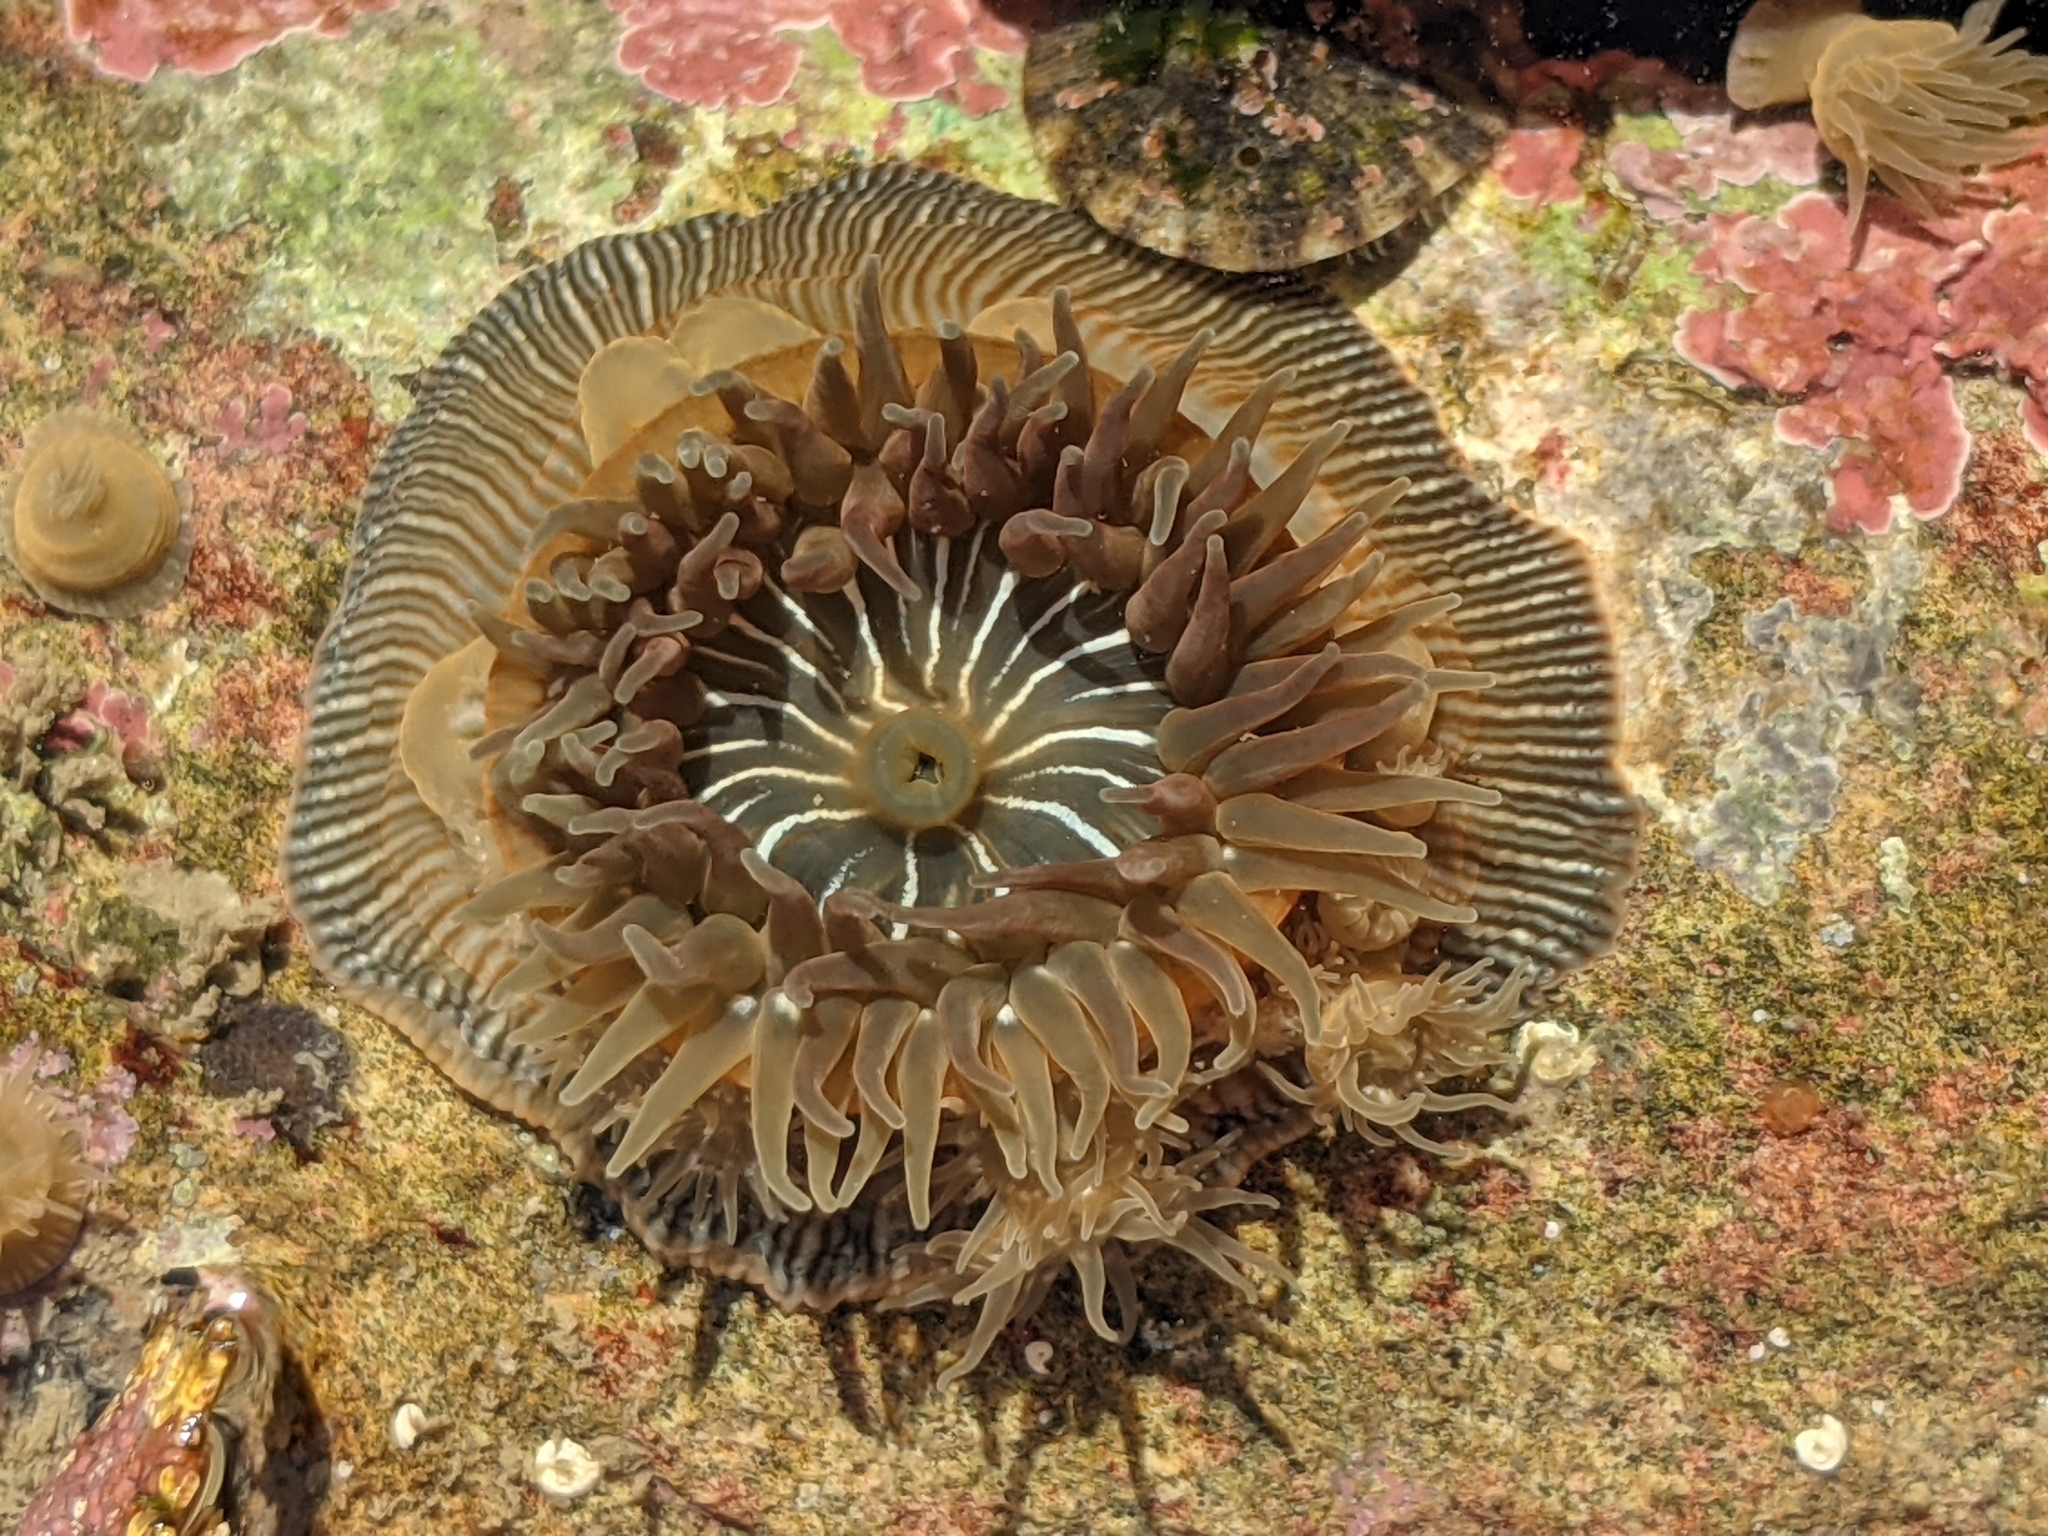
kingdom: Animalia
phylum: Cnidaria
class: Anthozoa
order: Actiniaria
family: Actiniidae
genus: Epiactis
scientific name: Epiactis prolifera
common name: Brooding anemone
